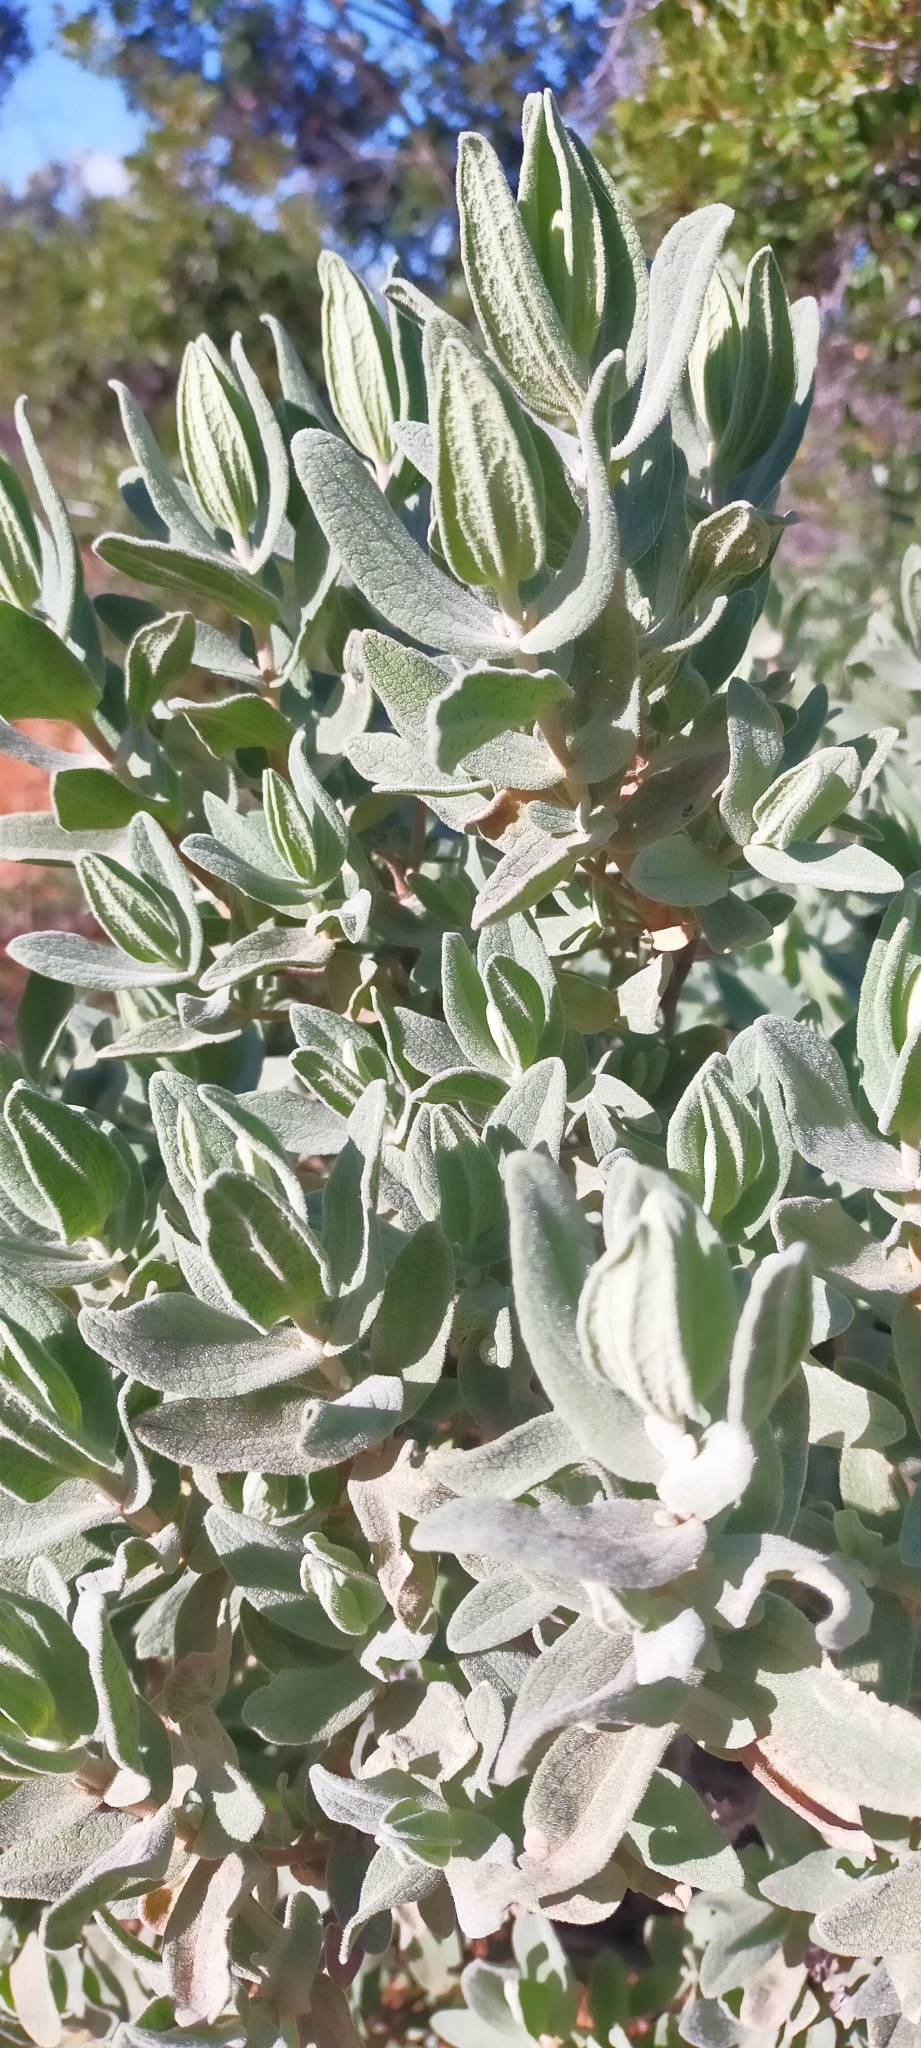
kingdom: Plantae
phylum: Tracheophyta
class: Magnoliopsida
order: Malvales
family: Cistaceae
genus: Cistus
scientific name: Cistus albidus
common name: White-leaf rock-rose
